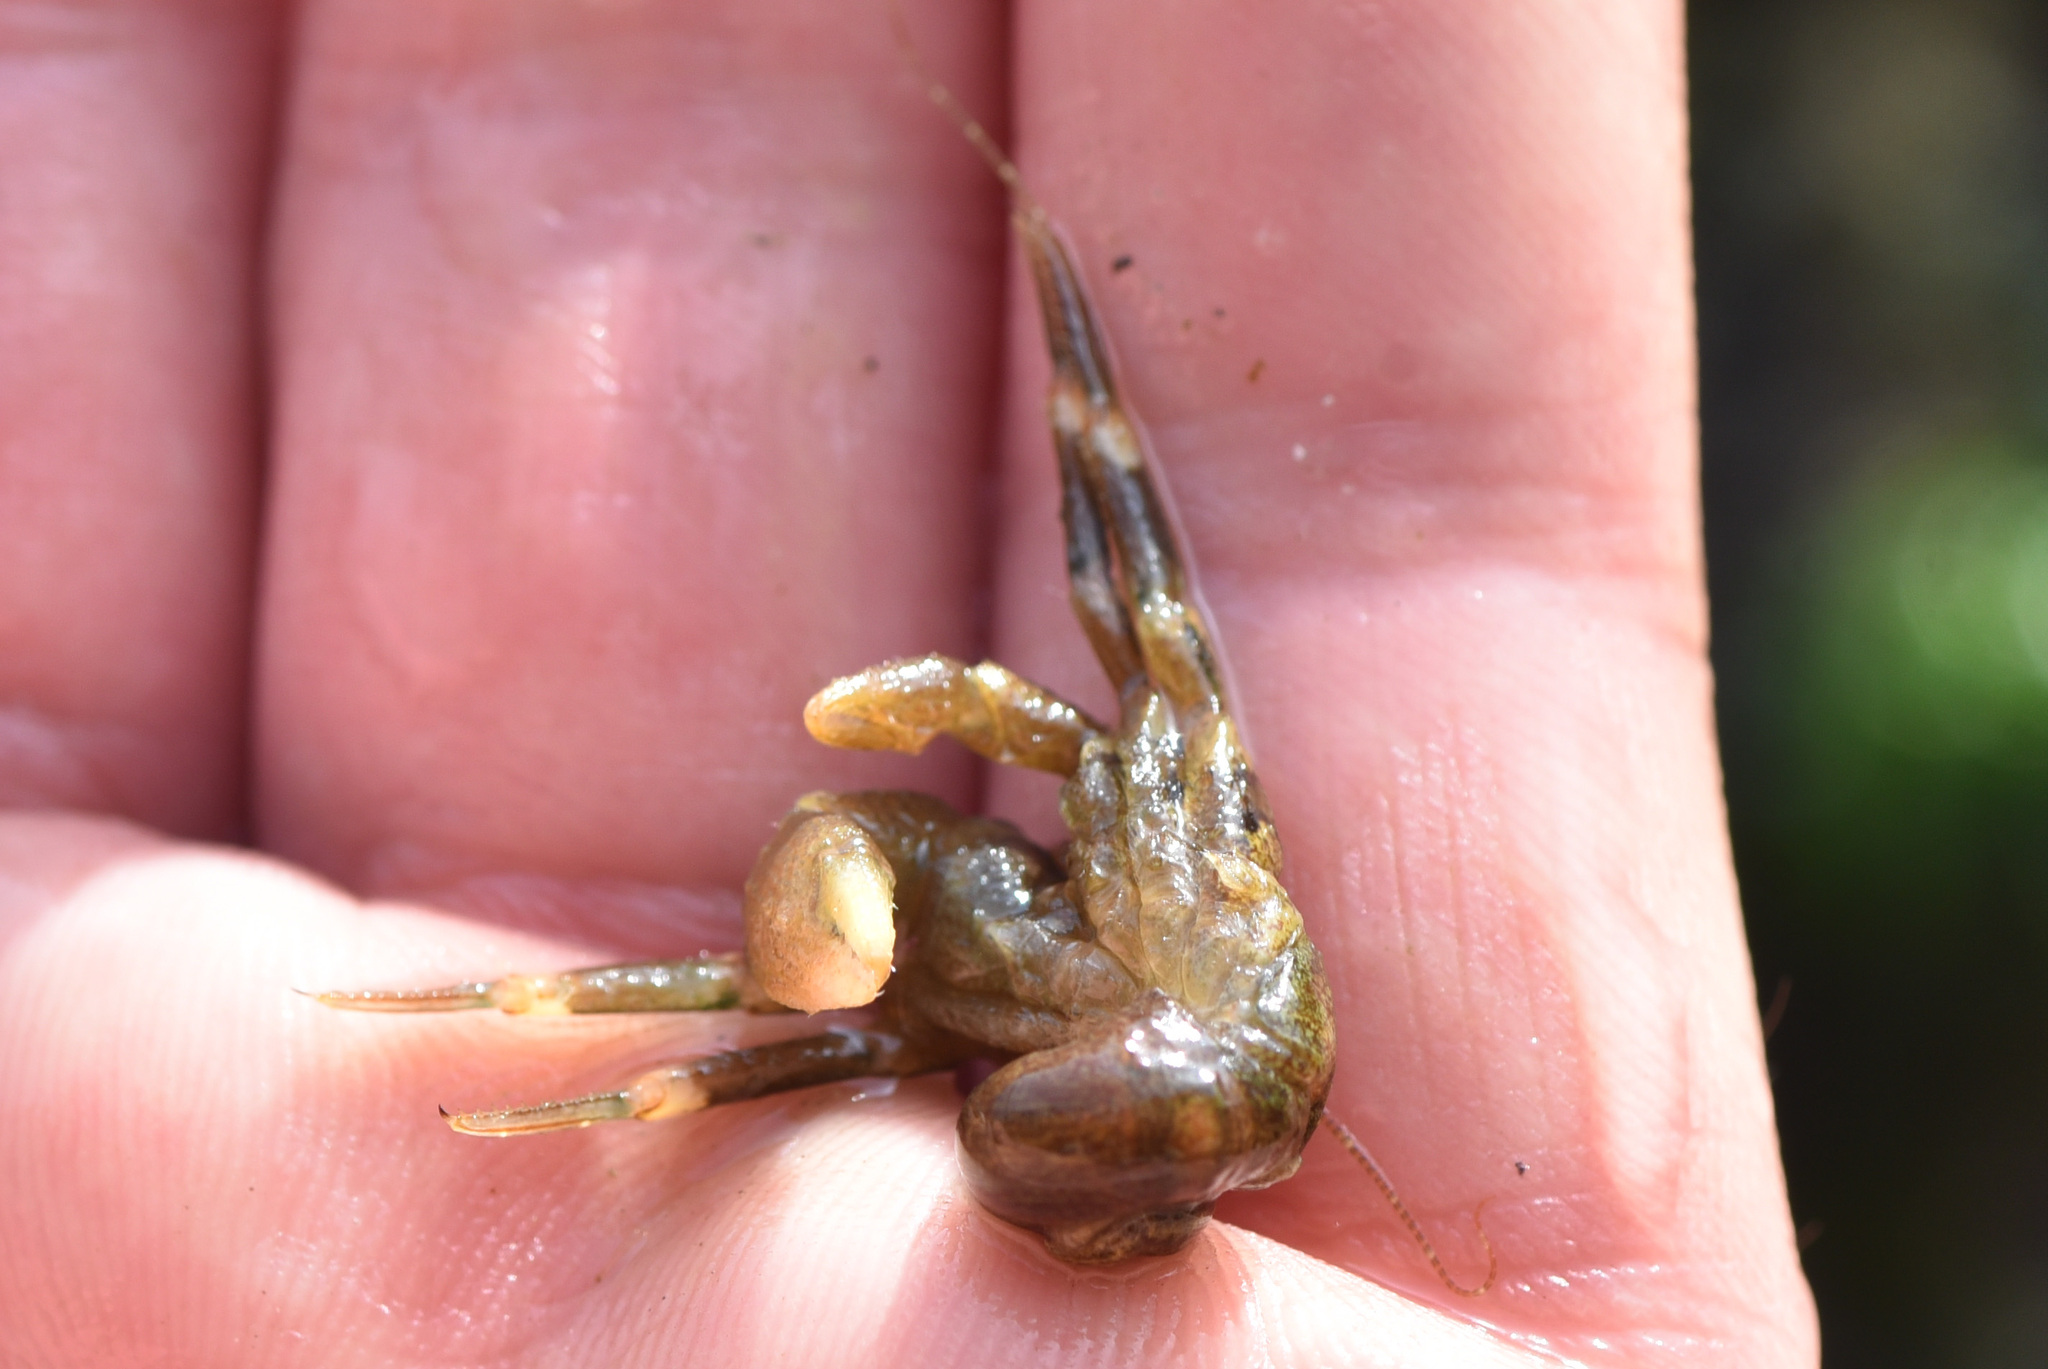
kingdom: Animalia
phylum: Arthropoda
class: Malacostraca
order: Decapoda
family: Paguridae
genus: Pagurus
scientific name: Pagurus hirsutiusculus
